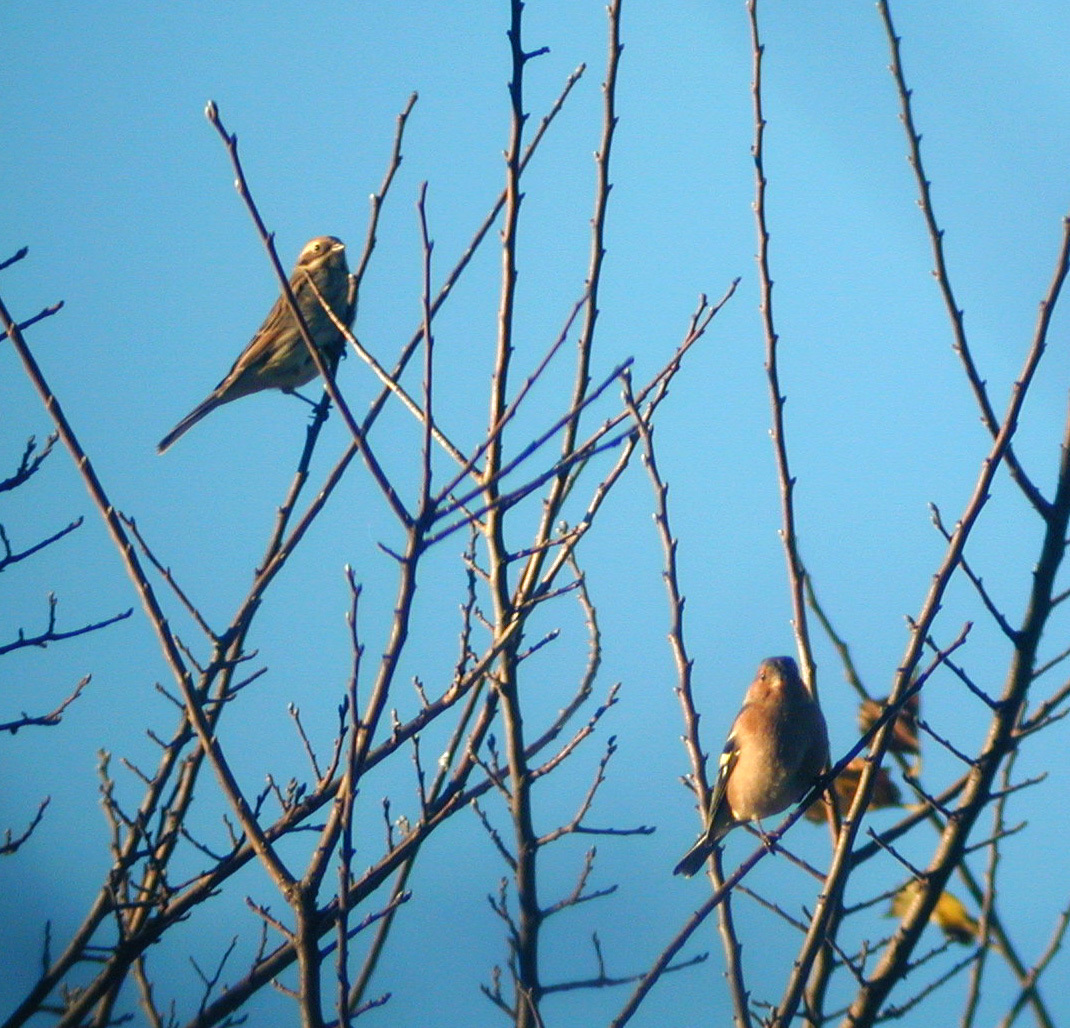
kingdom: Animalia
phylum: Chordata
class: Aves
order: Passeriformes
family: Emberizidae
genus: Emberiza
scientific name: Emberiza schoeniclus
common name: Reed bunting
